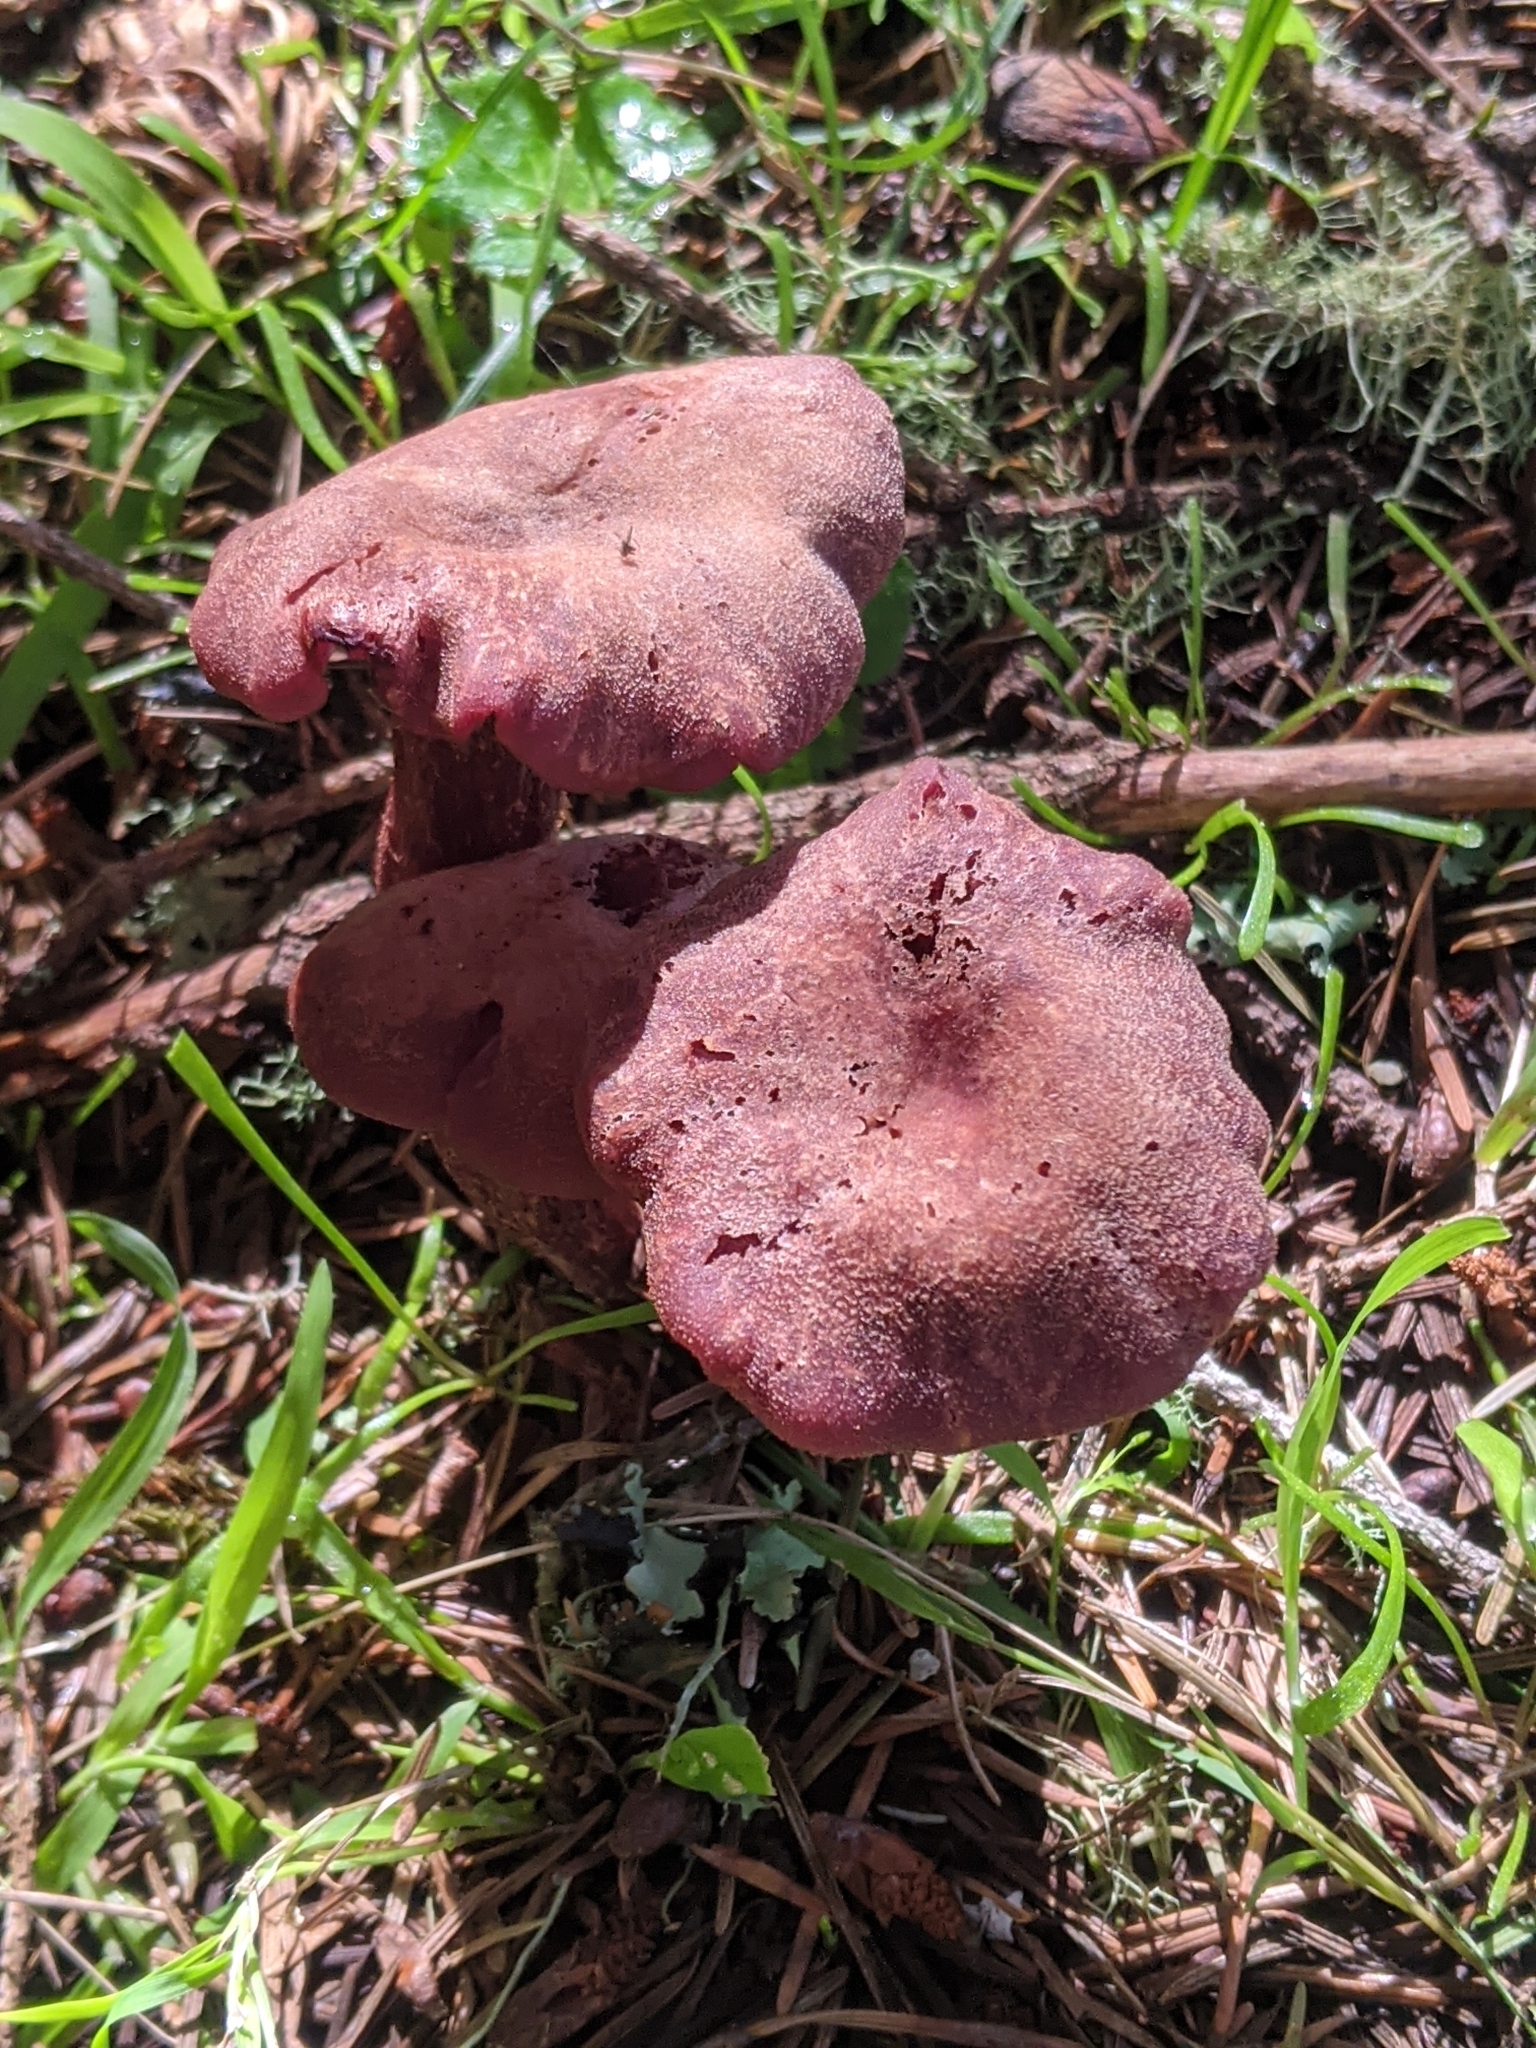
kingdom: Fungi
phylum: Basidiomycota
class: Agaricomycetes
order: Agaricales
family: Hydnangiaceae
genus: Laccaria
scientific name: Laccaria amethysteo-occidentalis
